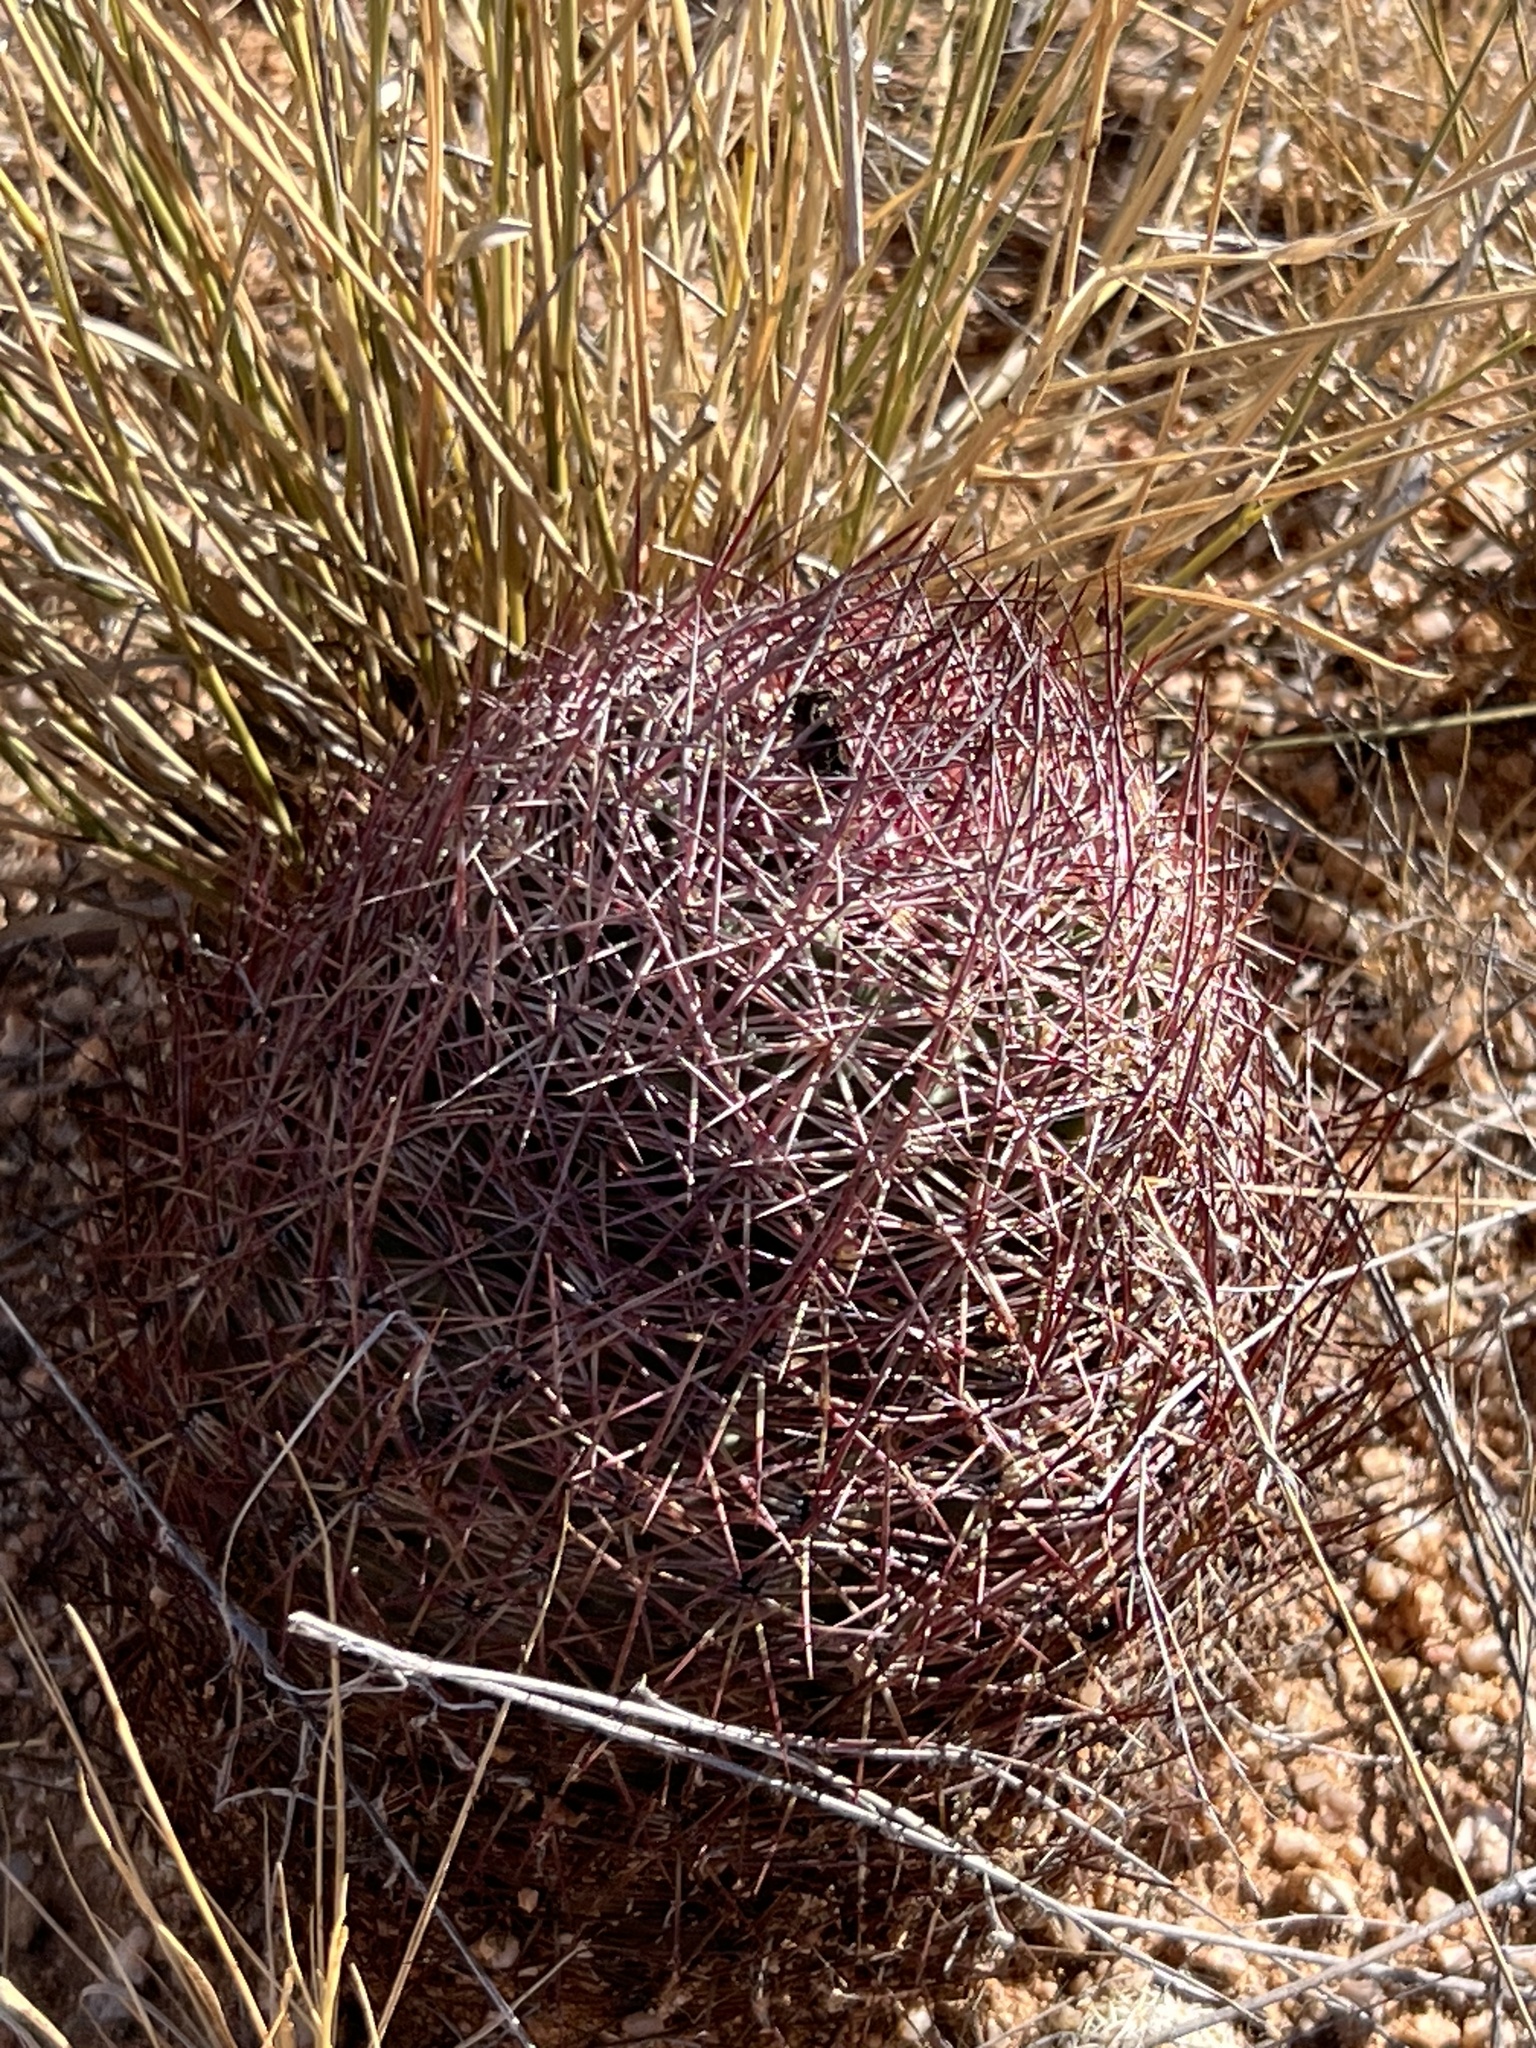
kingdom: Plantae
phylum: Tracheophyta
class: Magnoliopsida
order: Caryophyllales
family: Cactaceae
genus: Sclerocactus
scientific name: Sclerocactus johnsonii
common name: Eight-spine fishhook cactus
